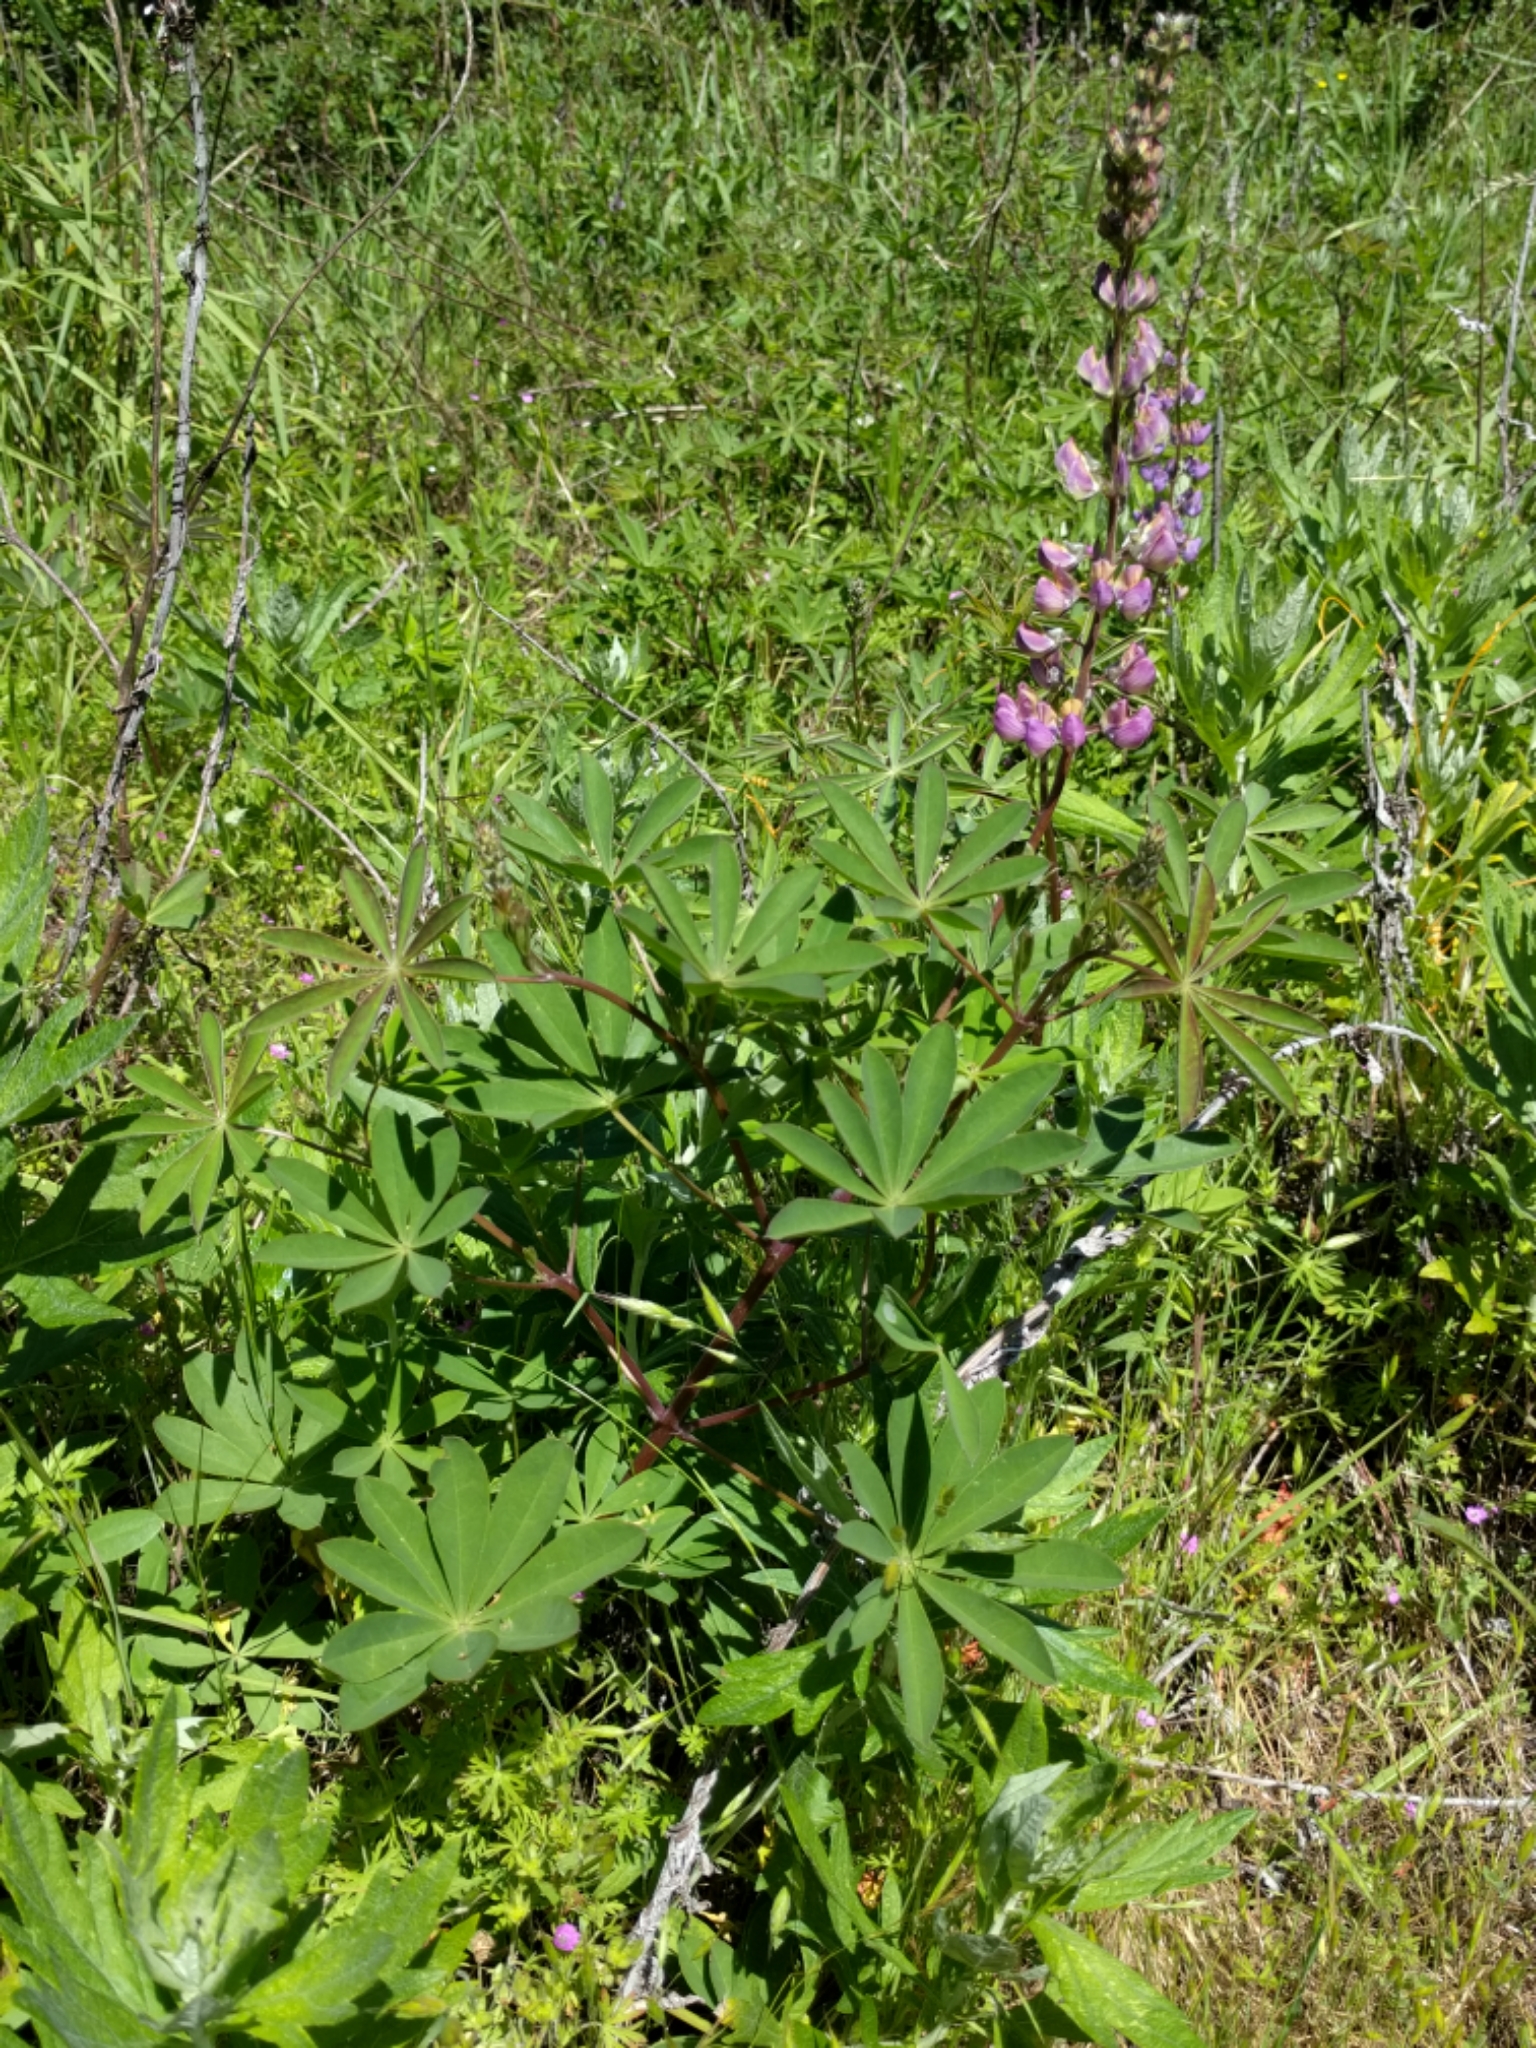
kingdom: Plantae
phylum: Tracheophyta
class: Magnoliopsida
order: Fabales
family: Fabaceae
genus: Lupinus
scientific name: Lupinus latifolius
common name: Broad-leaved lupine
